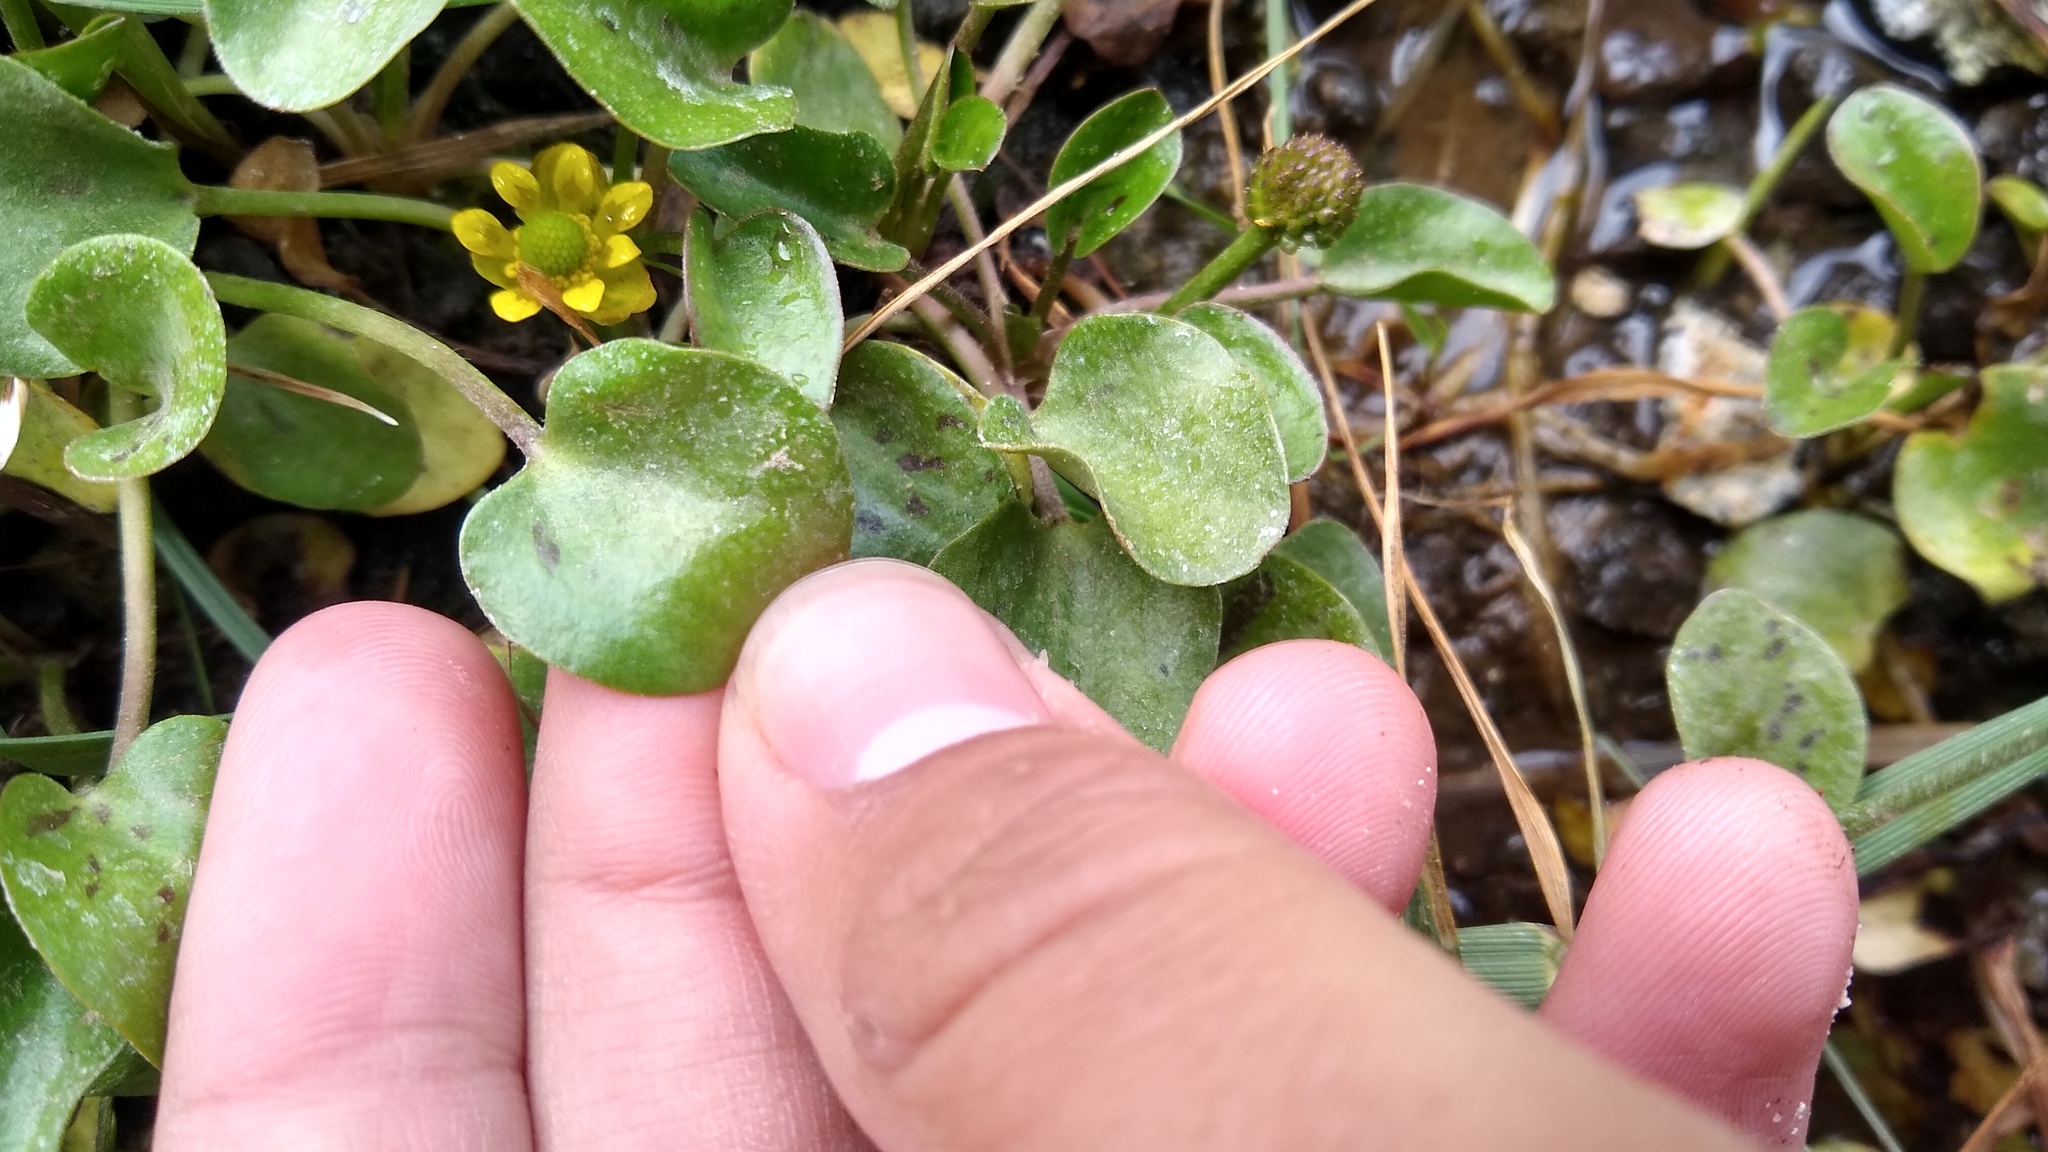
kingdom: Plantae
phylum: Tracheophyta
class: Magnoliopsida
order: Ranunculales
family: Ranunculaceae
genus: Halerpestes
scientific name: Halerpestes uniflora
